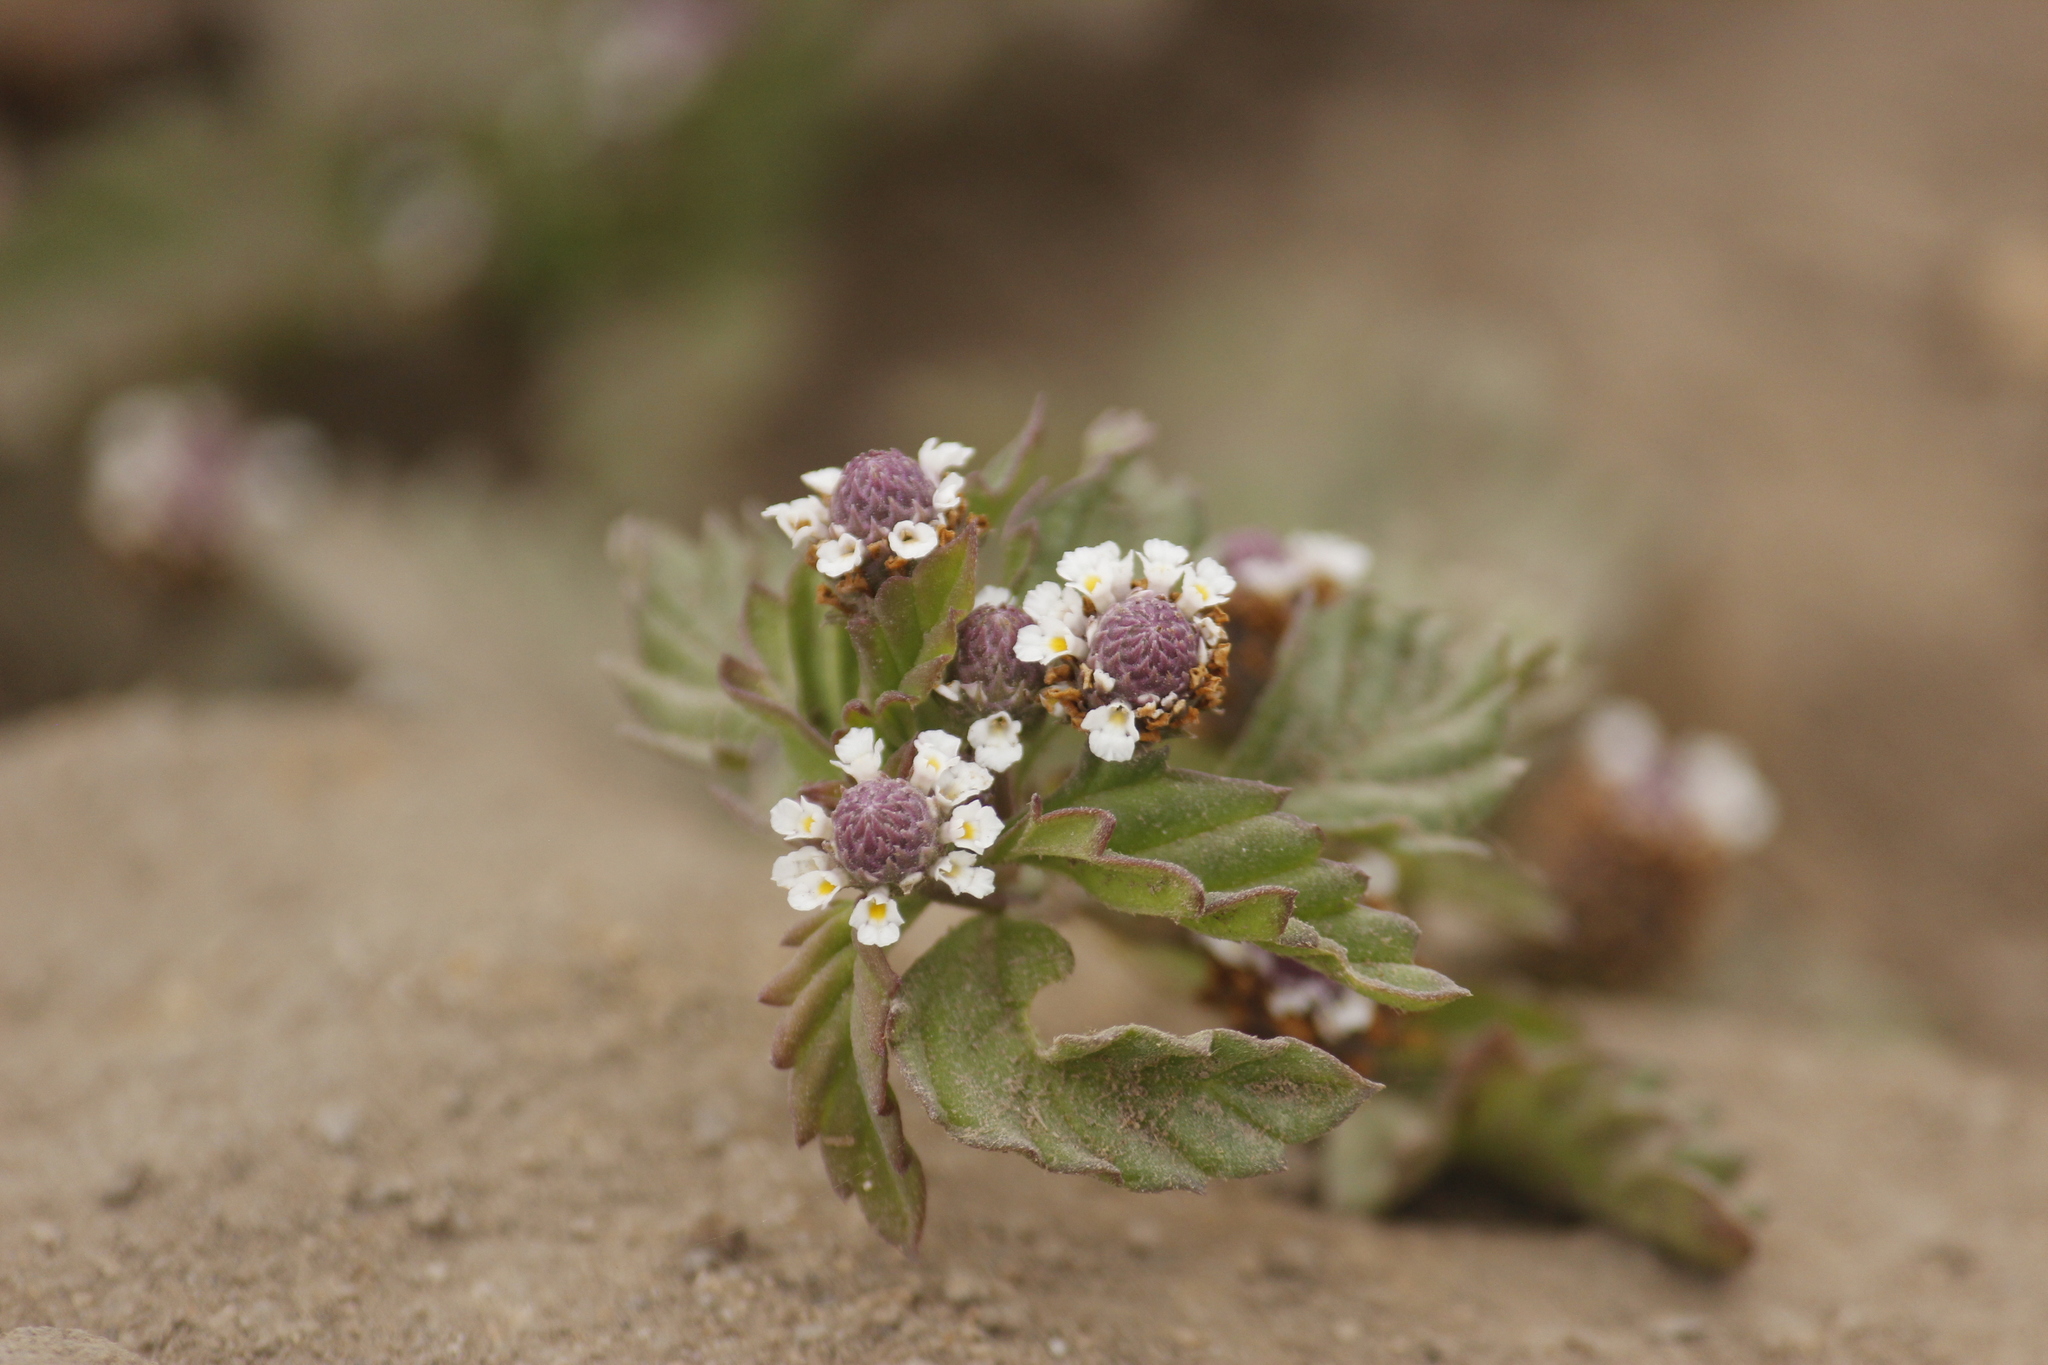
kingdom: Plantae
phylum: Tracheophyta
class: Magnoliopsida
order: Lamiales
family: Verbenaceae
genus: Phyla
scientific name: Phyla nodiflora
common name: Frogfruit
